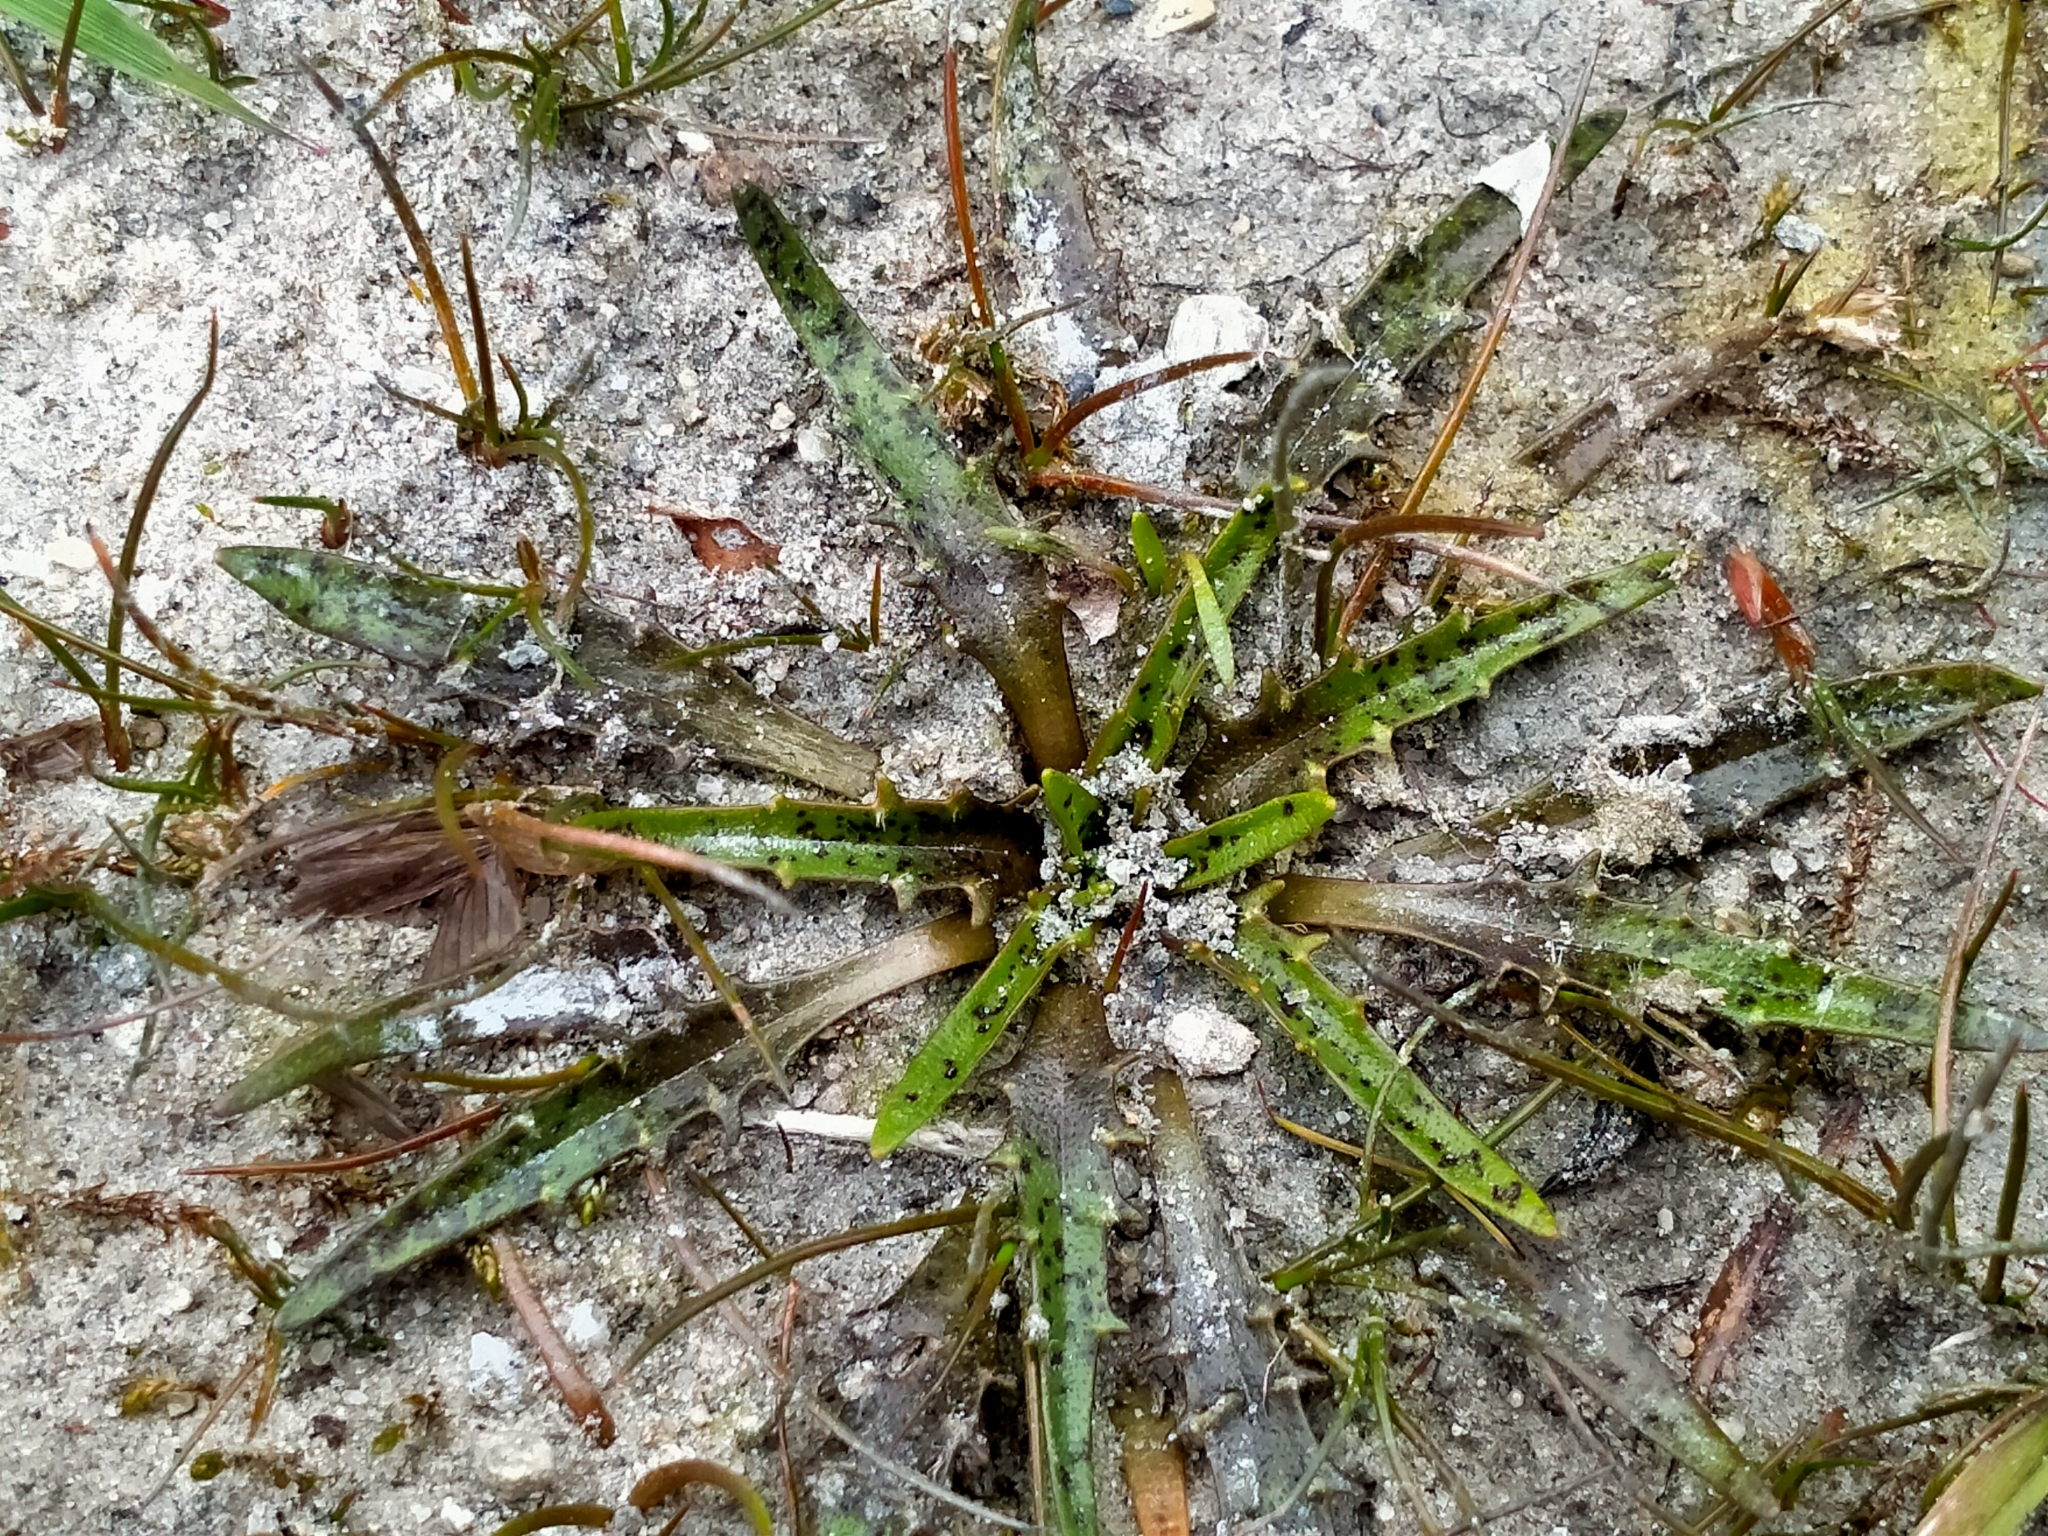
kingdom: Plantae
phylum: Tracheophyta
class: Magnoliopsida
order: Lamiales
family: Plantaginaceae
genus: Plantago
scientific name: Plantago triandra
